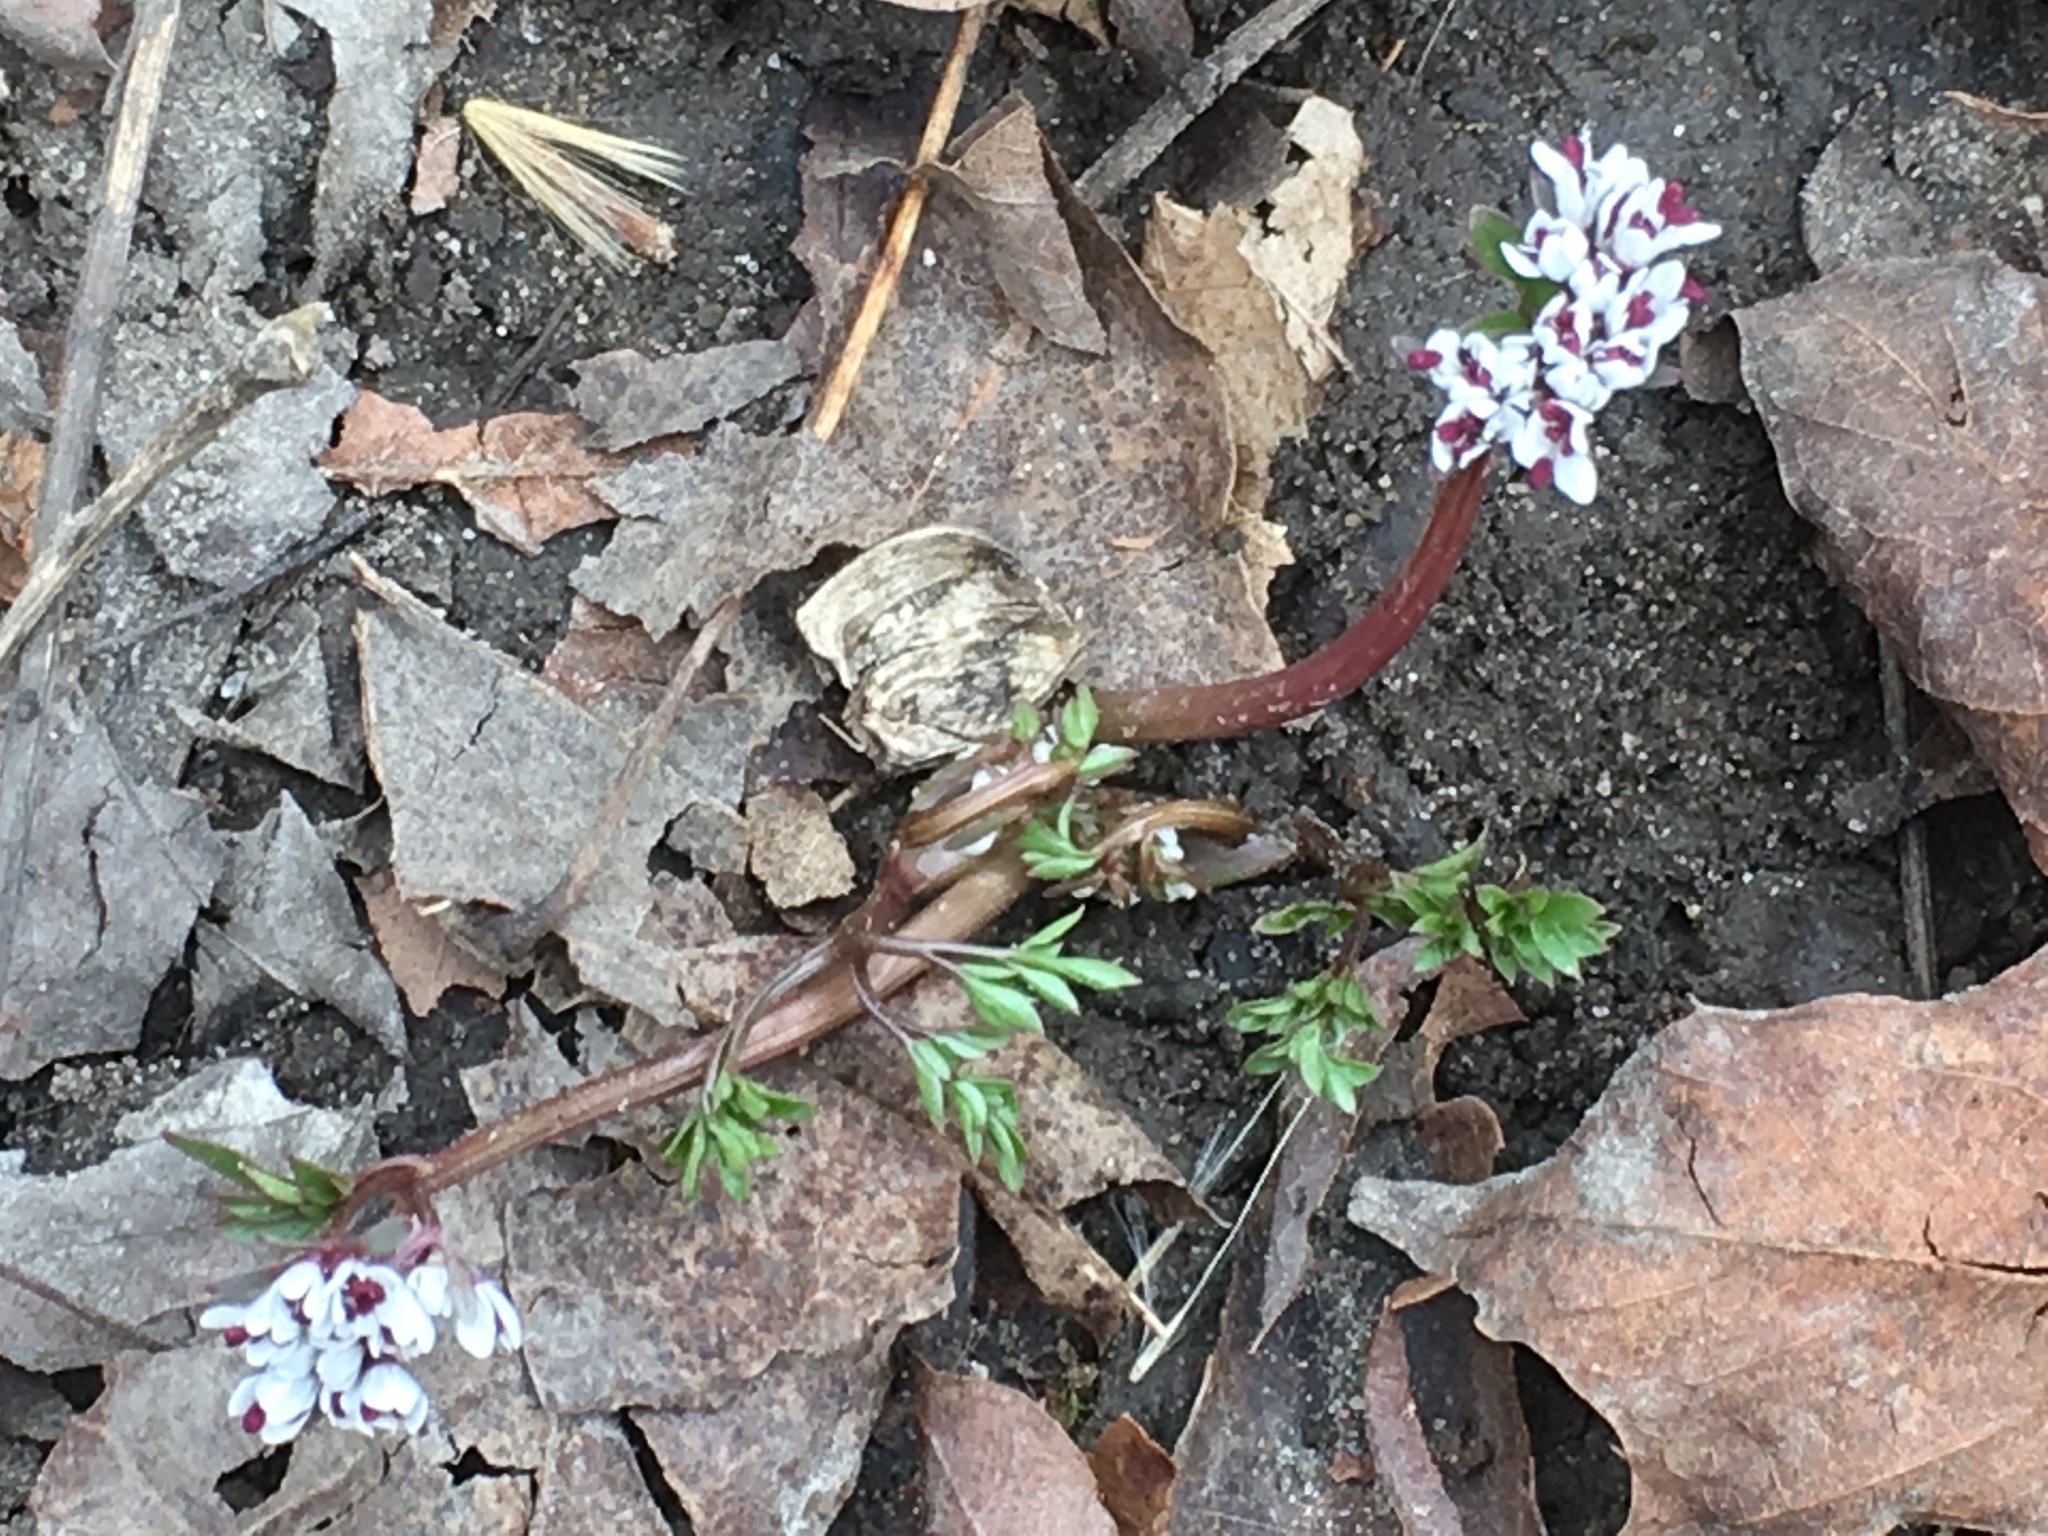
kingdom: Plantae
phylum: Tracheophyta
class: Magnoliopsida
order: Apiales
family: Apiaceae
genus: Erigenia
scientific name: Erigenia bulbosa
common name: Pepper-and-salt
